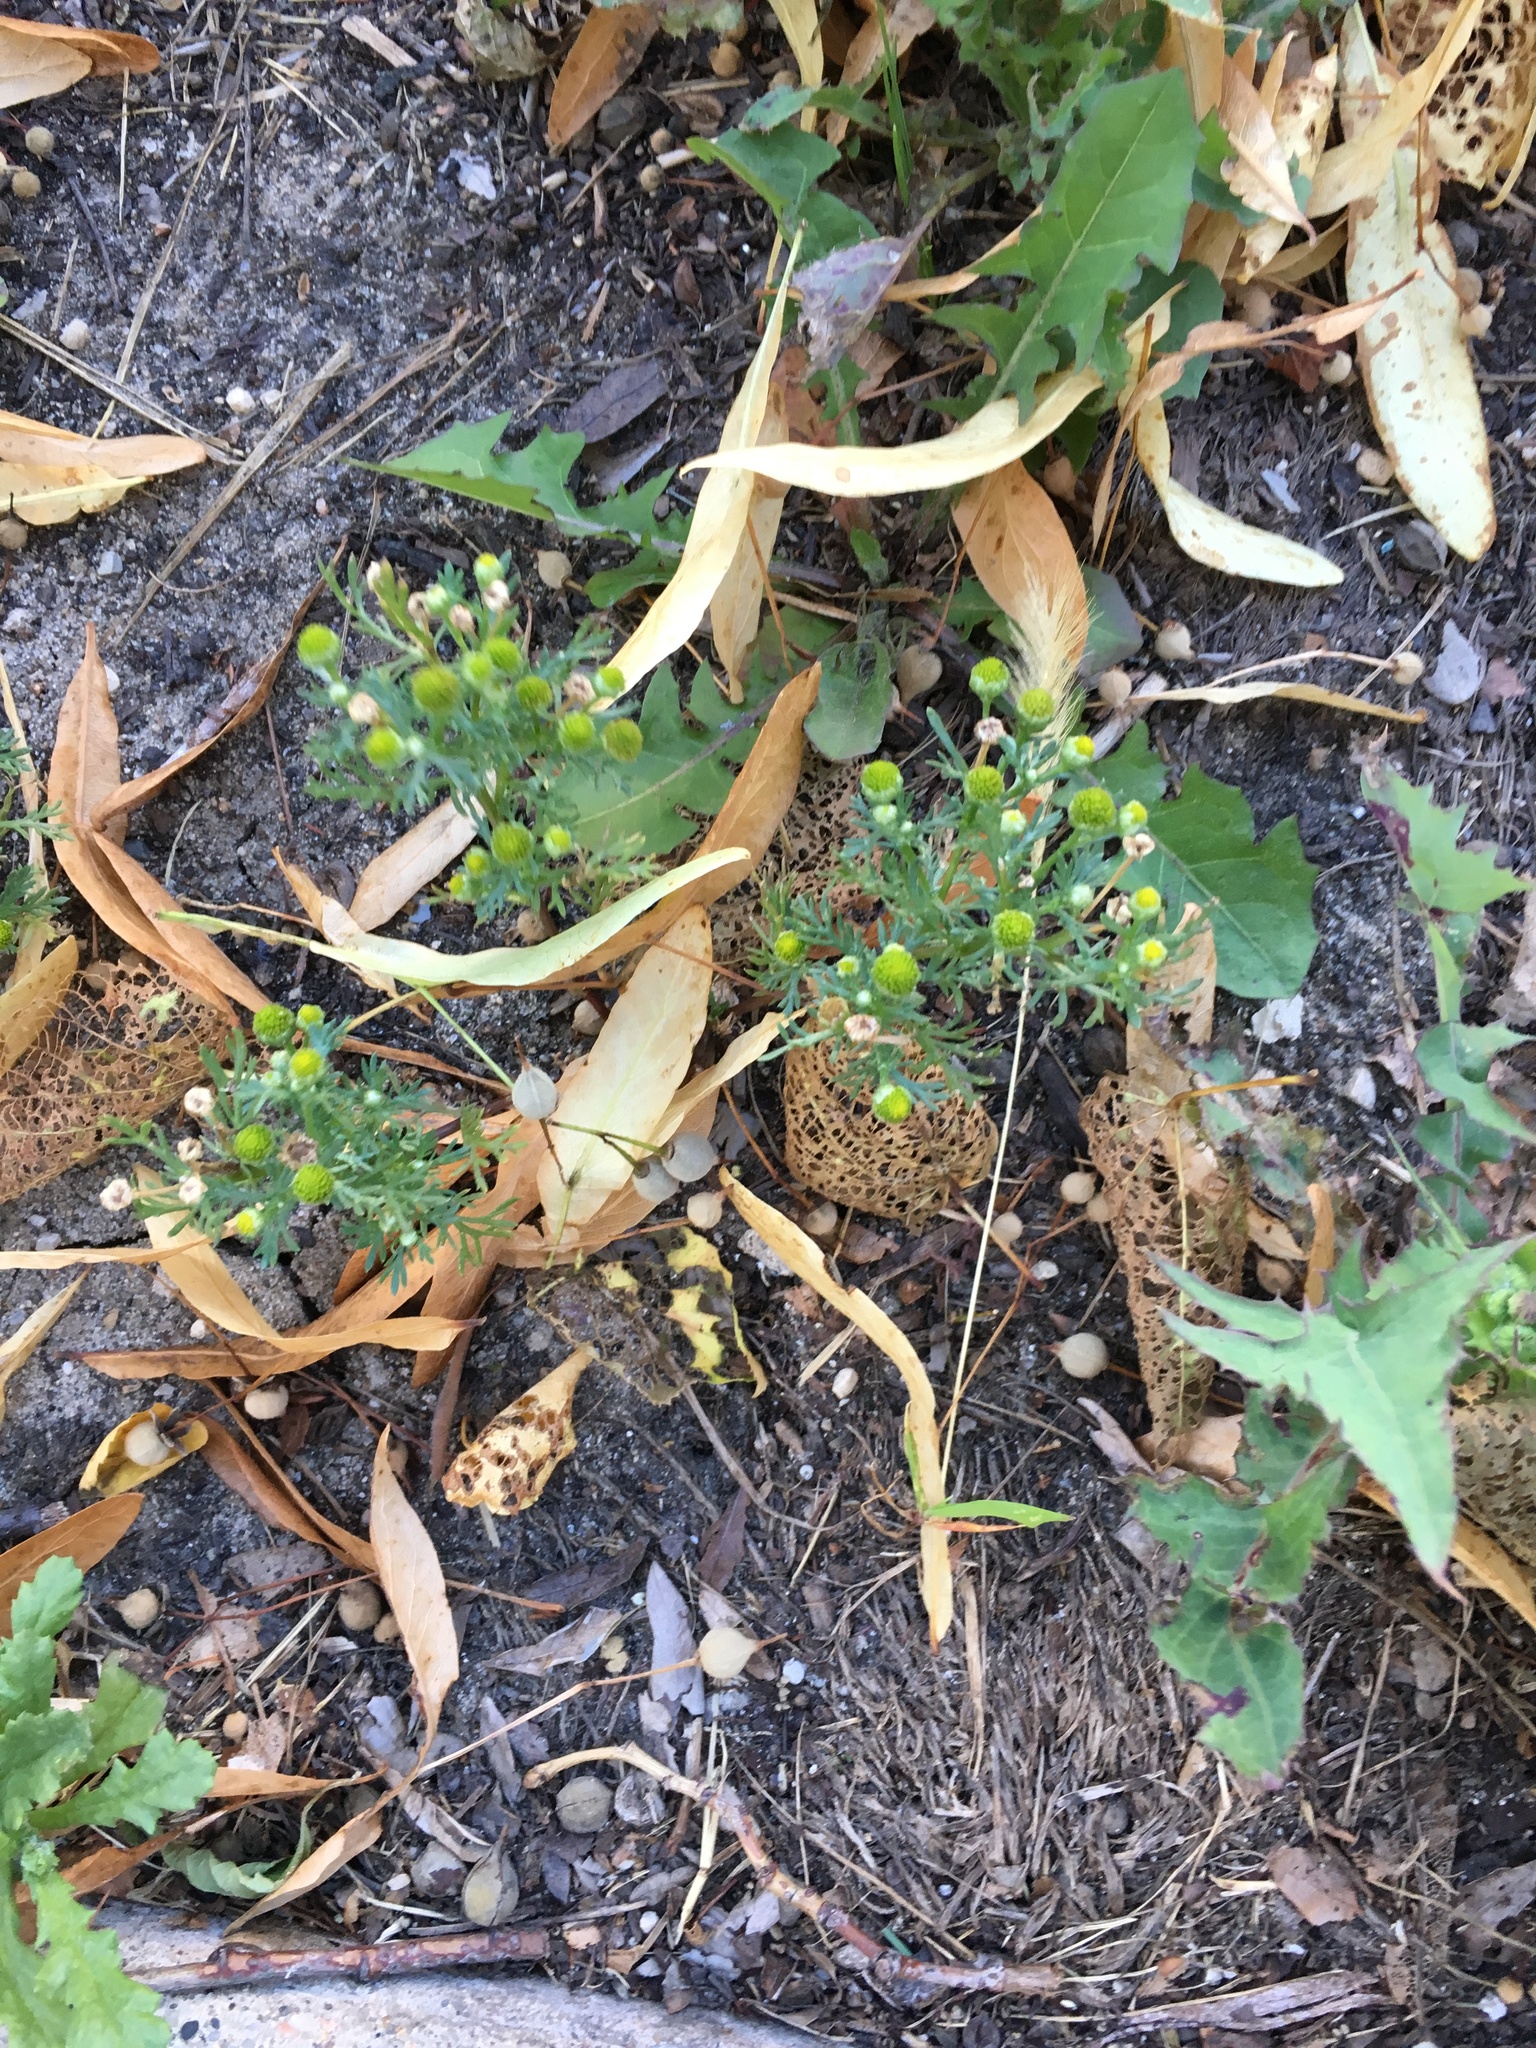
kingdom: Plantae
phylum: Tracheophyta
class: Magnoliopsida
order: Asterales
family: Asteraceae
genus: Matricaria
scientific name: Matricaria discoidea
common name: Disc mayweed
